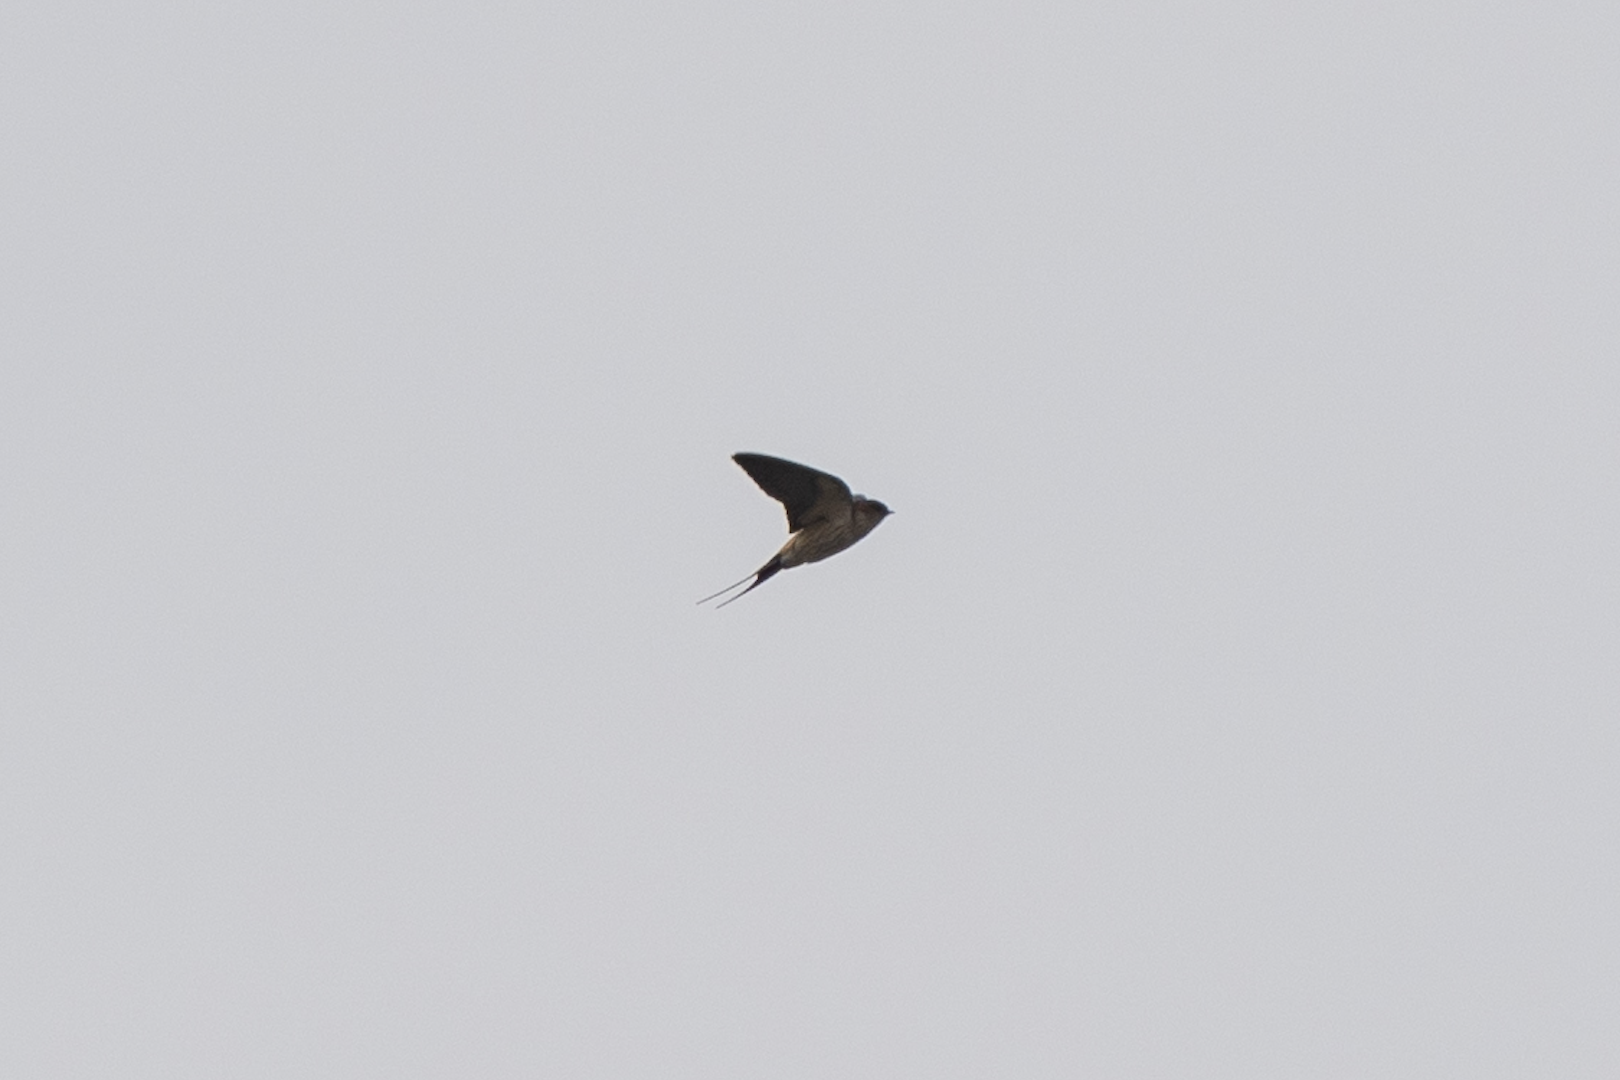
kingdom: Animalia
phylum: Chordata
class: Aves
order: Passeriformes
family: Hirundinidae
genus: Cecropis
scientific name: Cecropis daurica
